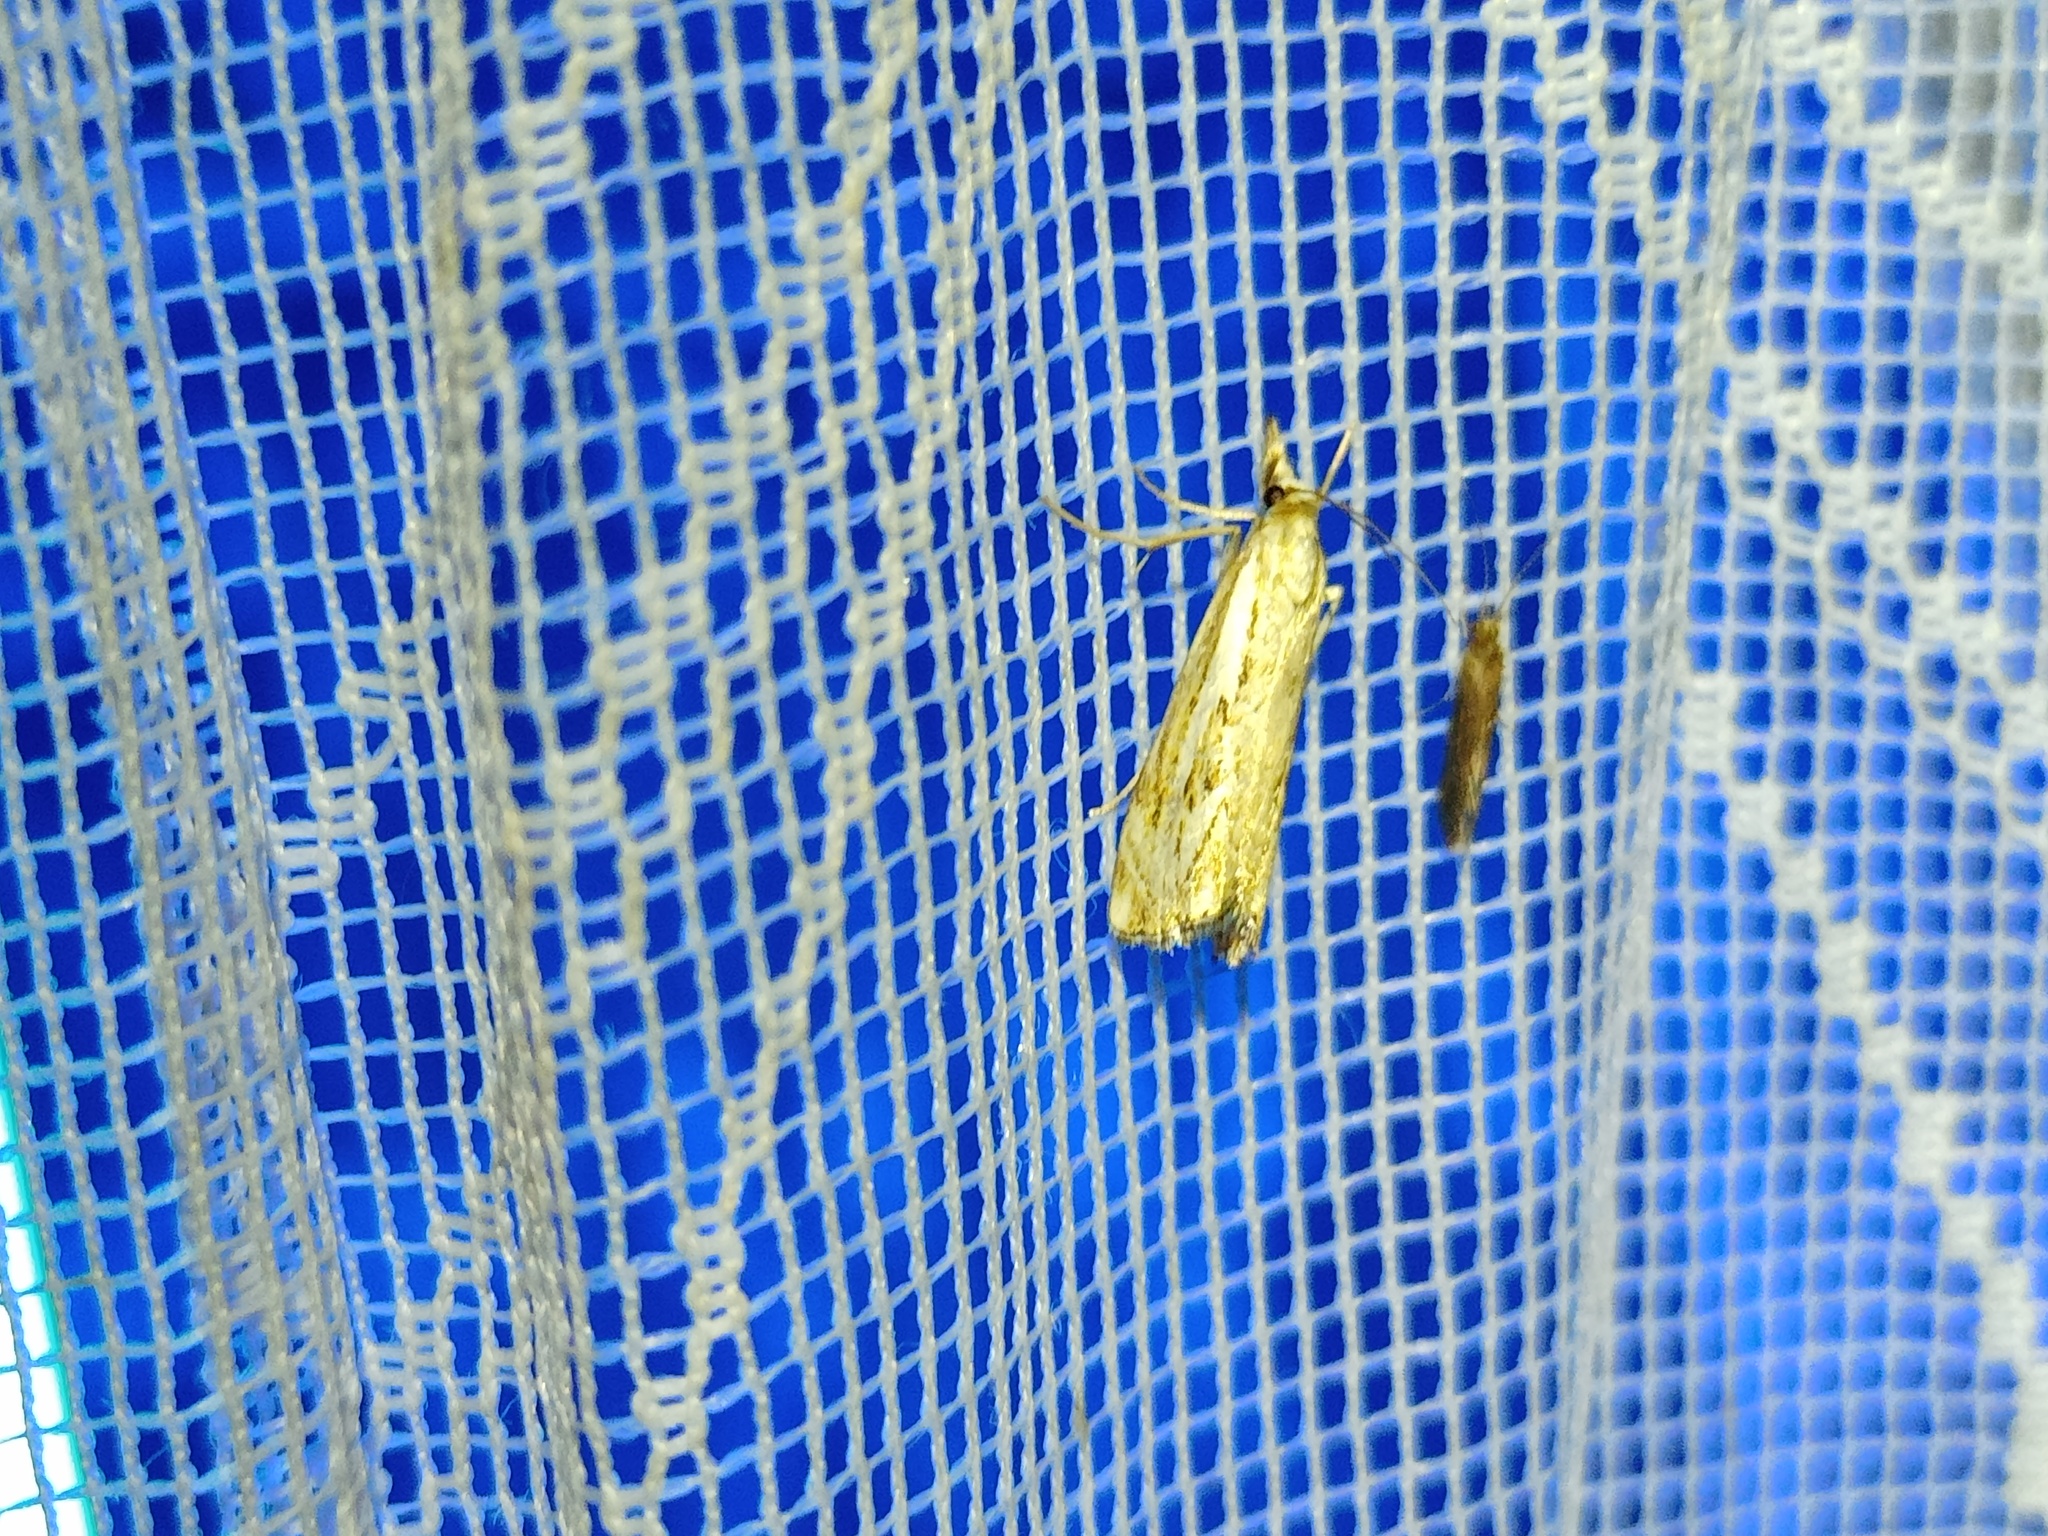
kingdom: Animalia
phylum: Arthropoda
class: Insecta
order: Lepidoptera
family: Crambidae
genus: Catoptria
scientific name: Catoptria falsella
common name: Chequered grass-veneer
